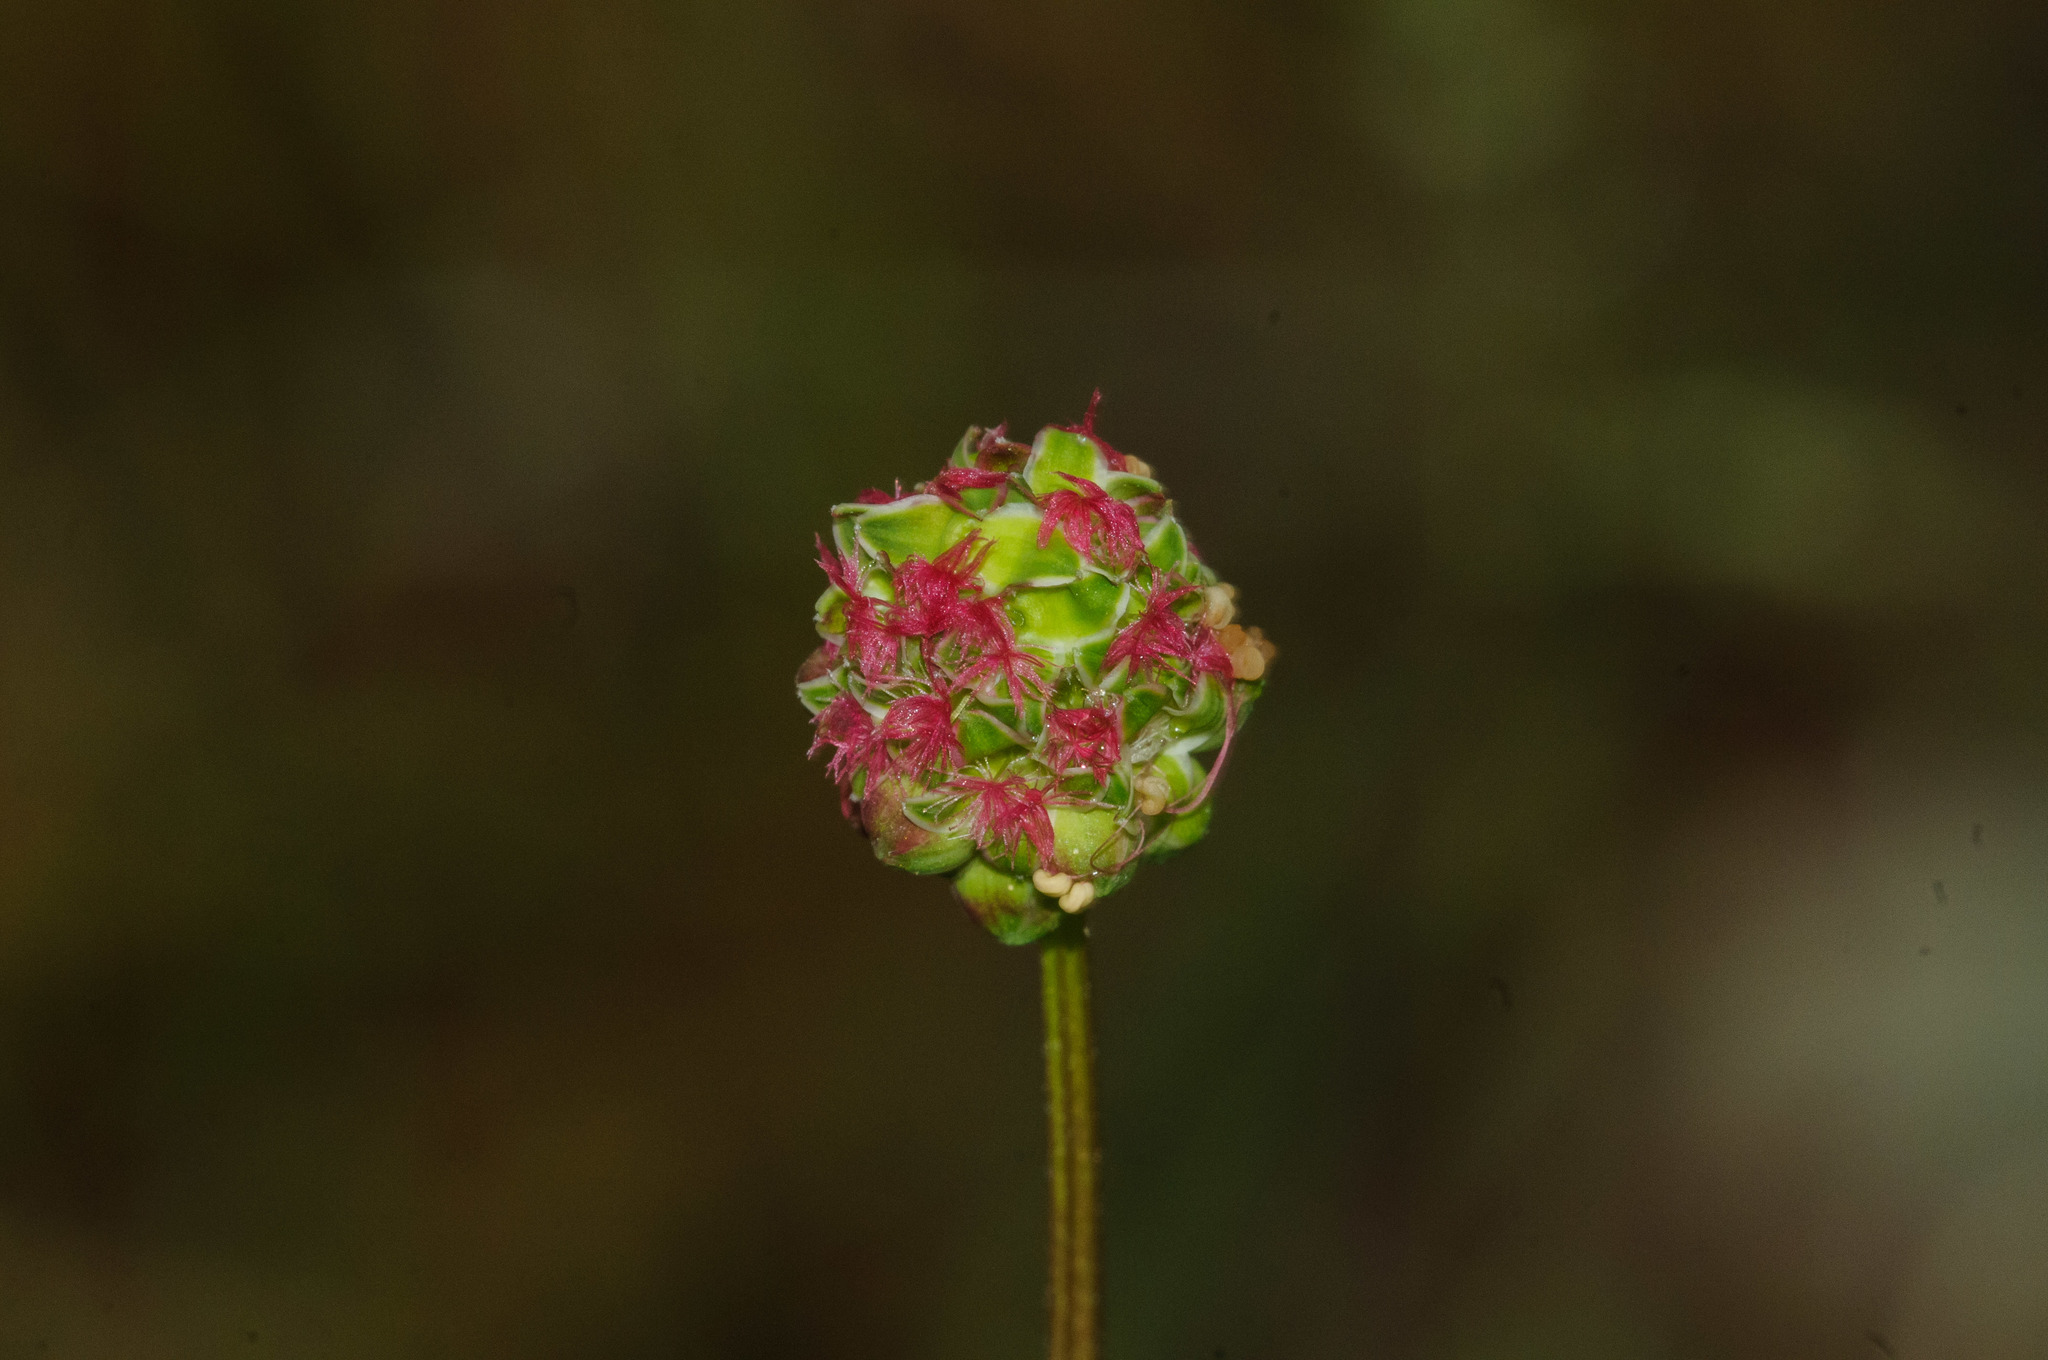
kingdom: Plantae
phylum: Tracheophyta
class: Magnoliopsida
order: Rosales
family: Rosaceae
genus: Poterium
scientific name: Poterium sanguisorba
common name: Salad burnet
